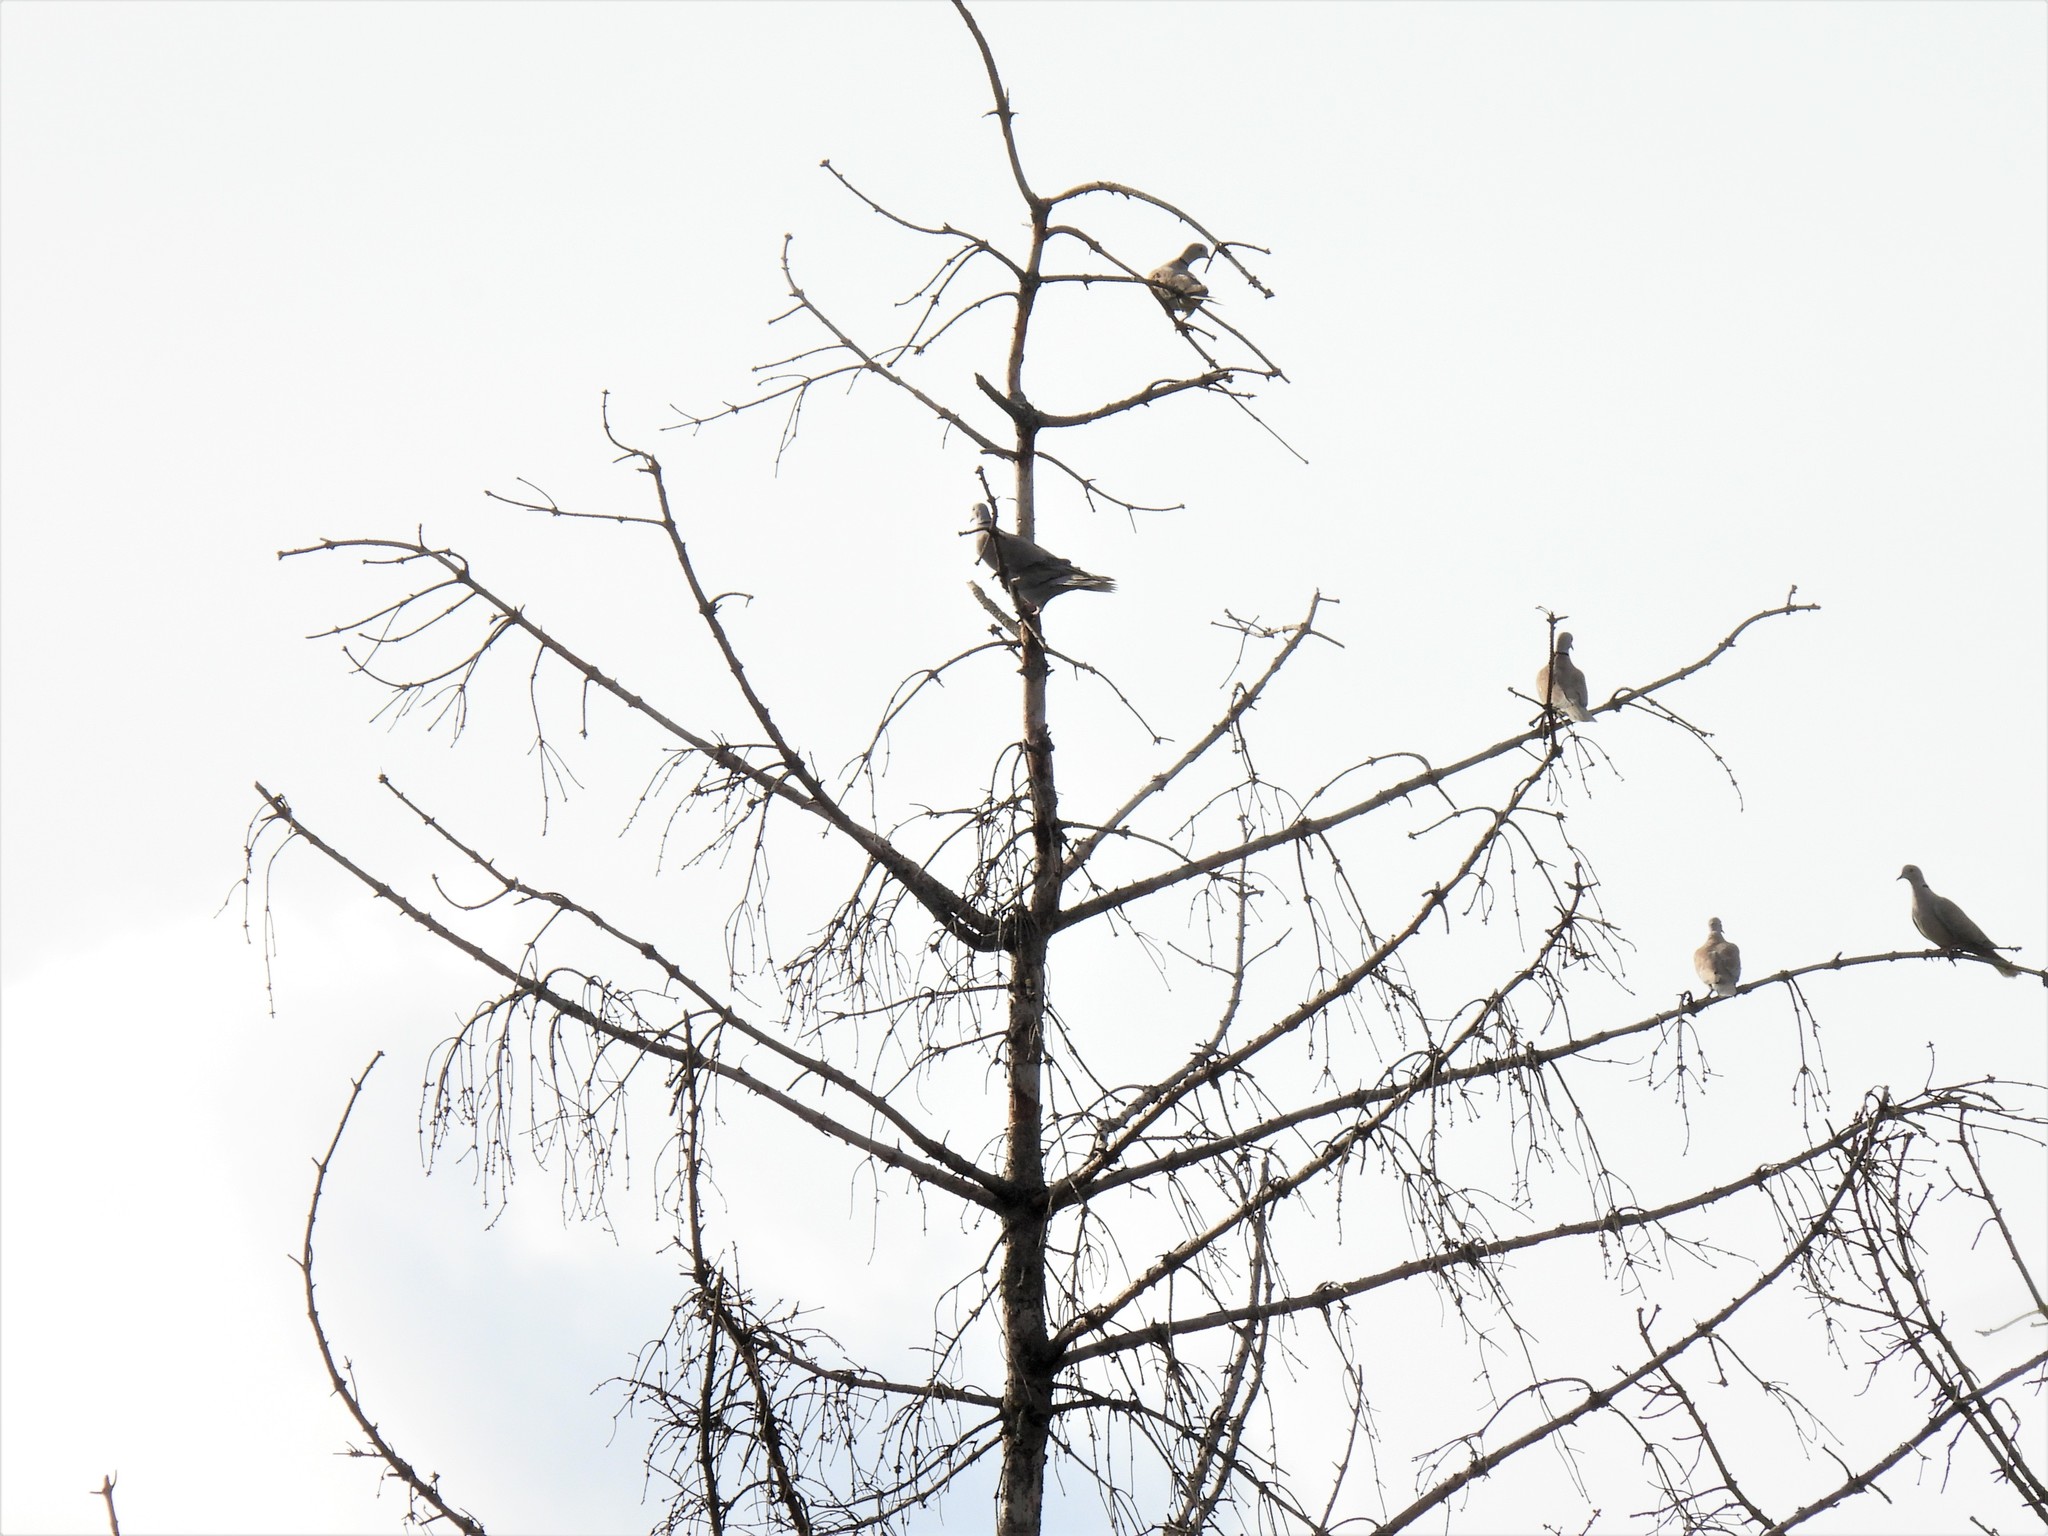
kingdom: Animalia
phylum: Chordata
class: Aves
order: Columbiformes
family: Columbidae
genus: Streptopelia
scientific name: Streptopelia decaocto
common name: Eurasian collared dove
